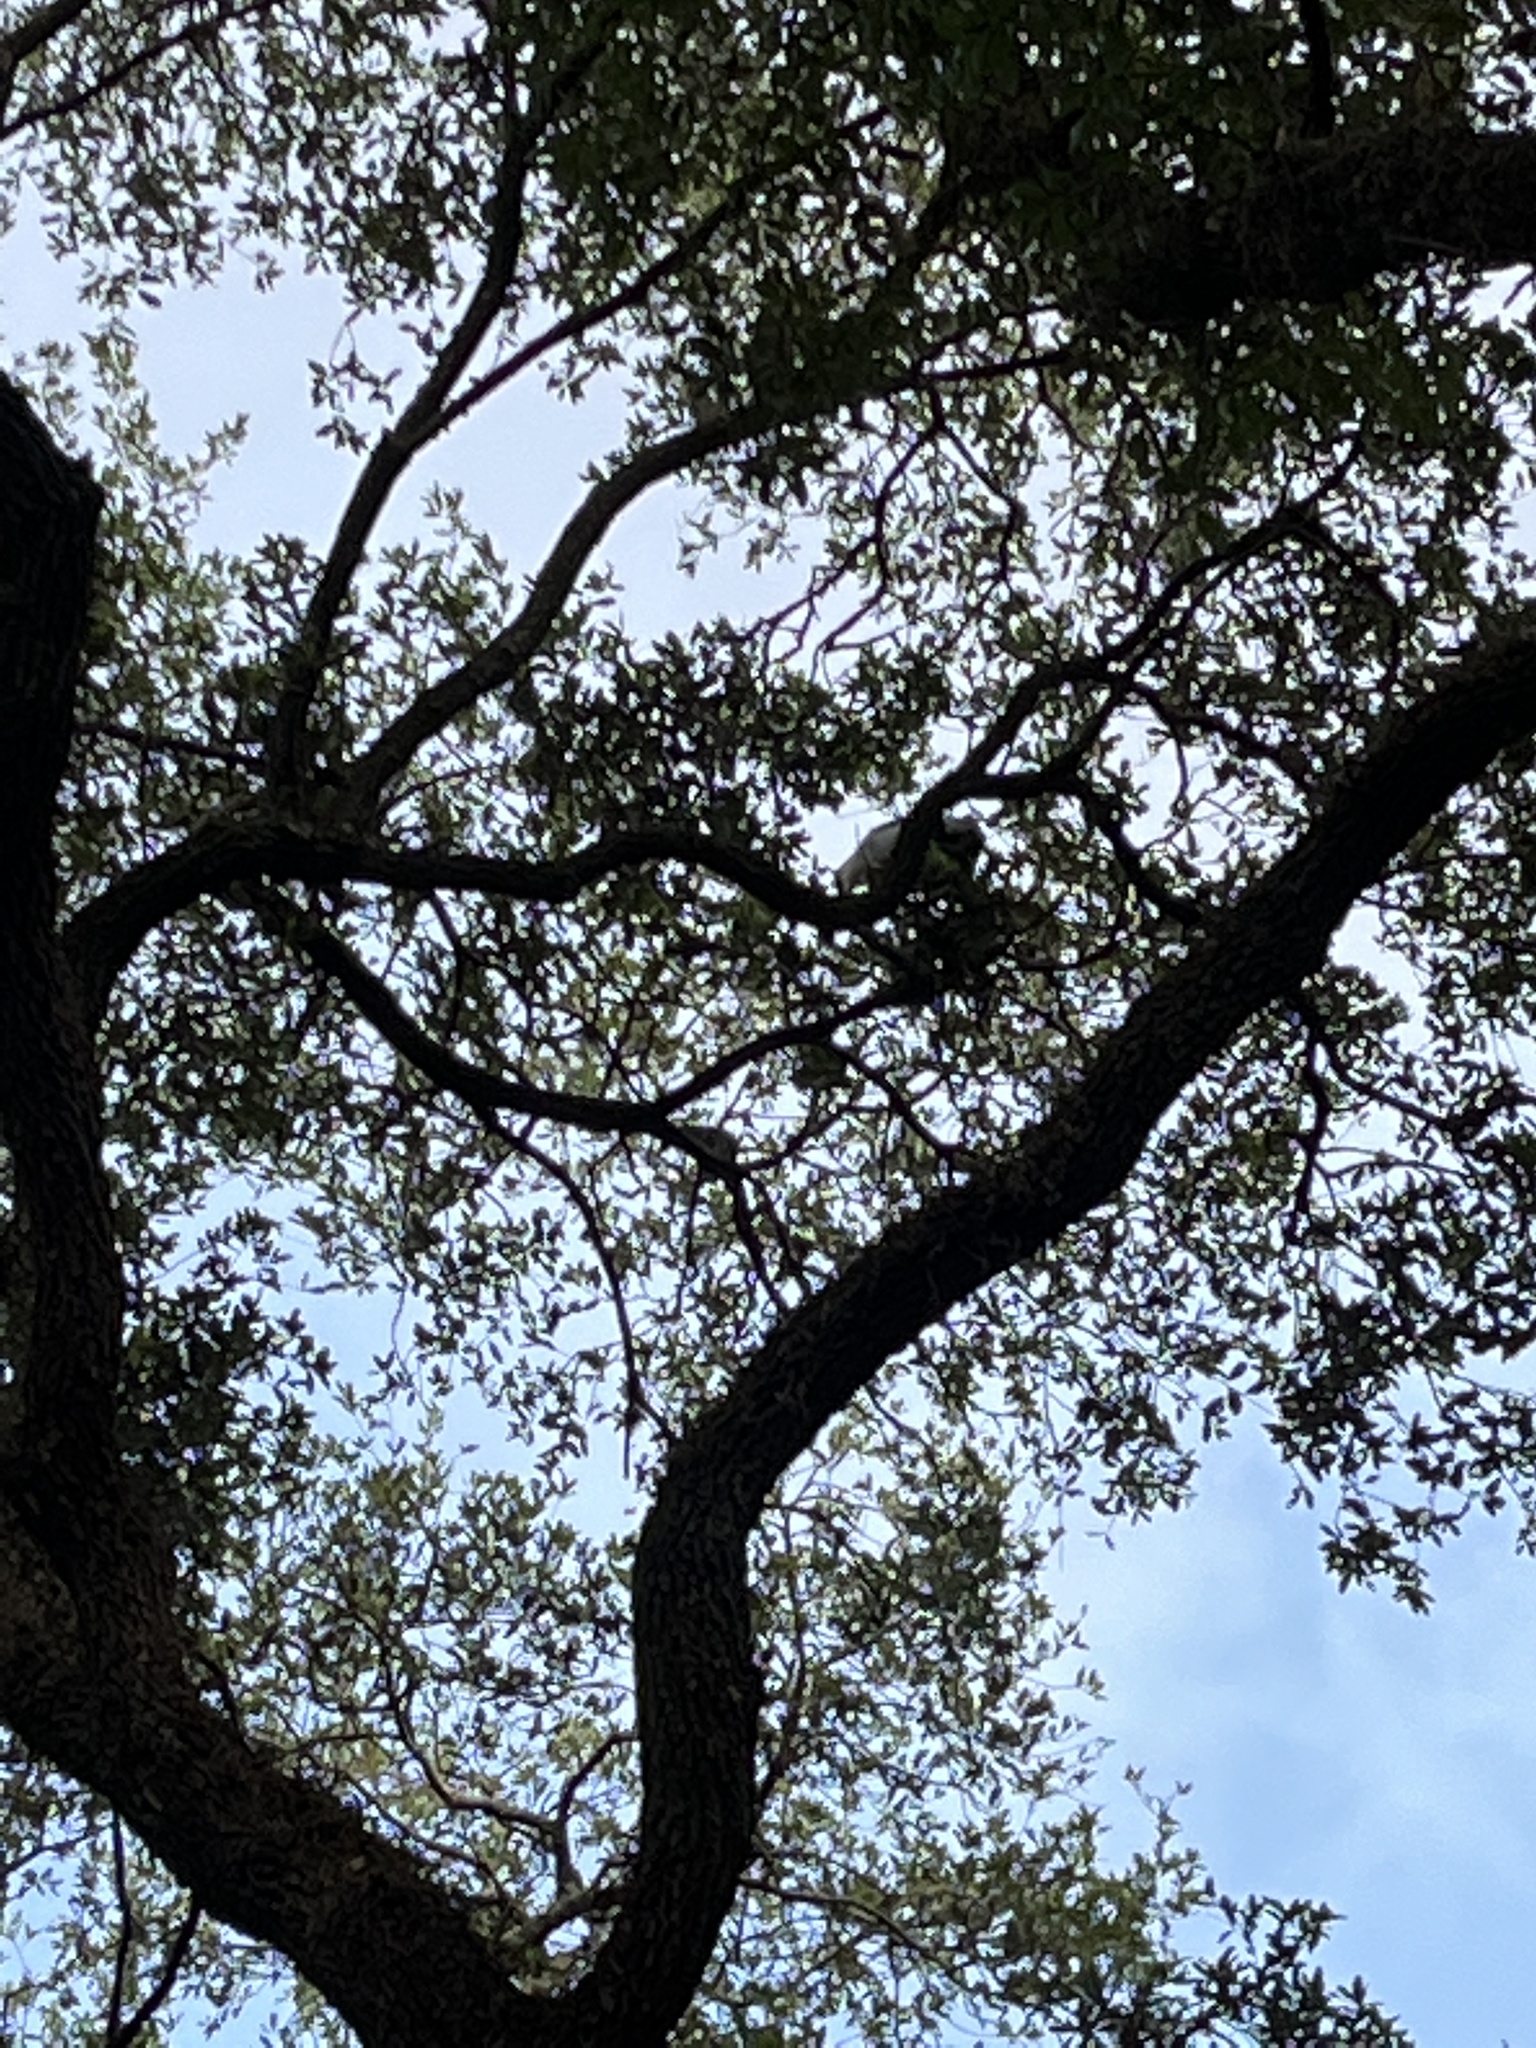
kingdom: Animalia
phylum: Chordata
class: Aves
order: Pelecaniformes
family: Ardeidae
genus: Nycticorax
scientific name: Nycticorax nycticorax
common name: Black-crowned night heron
